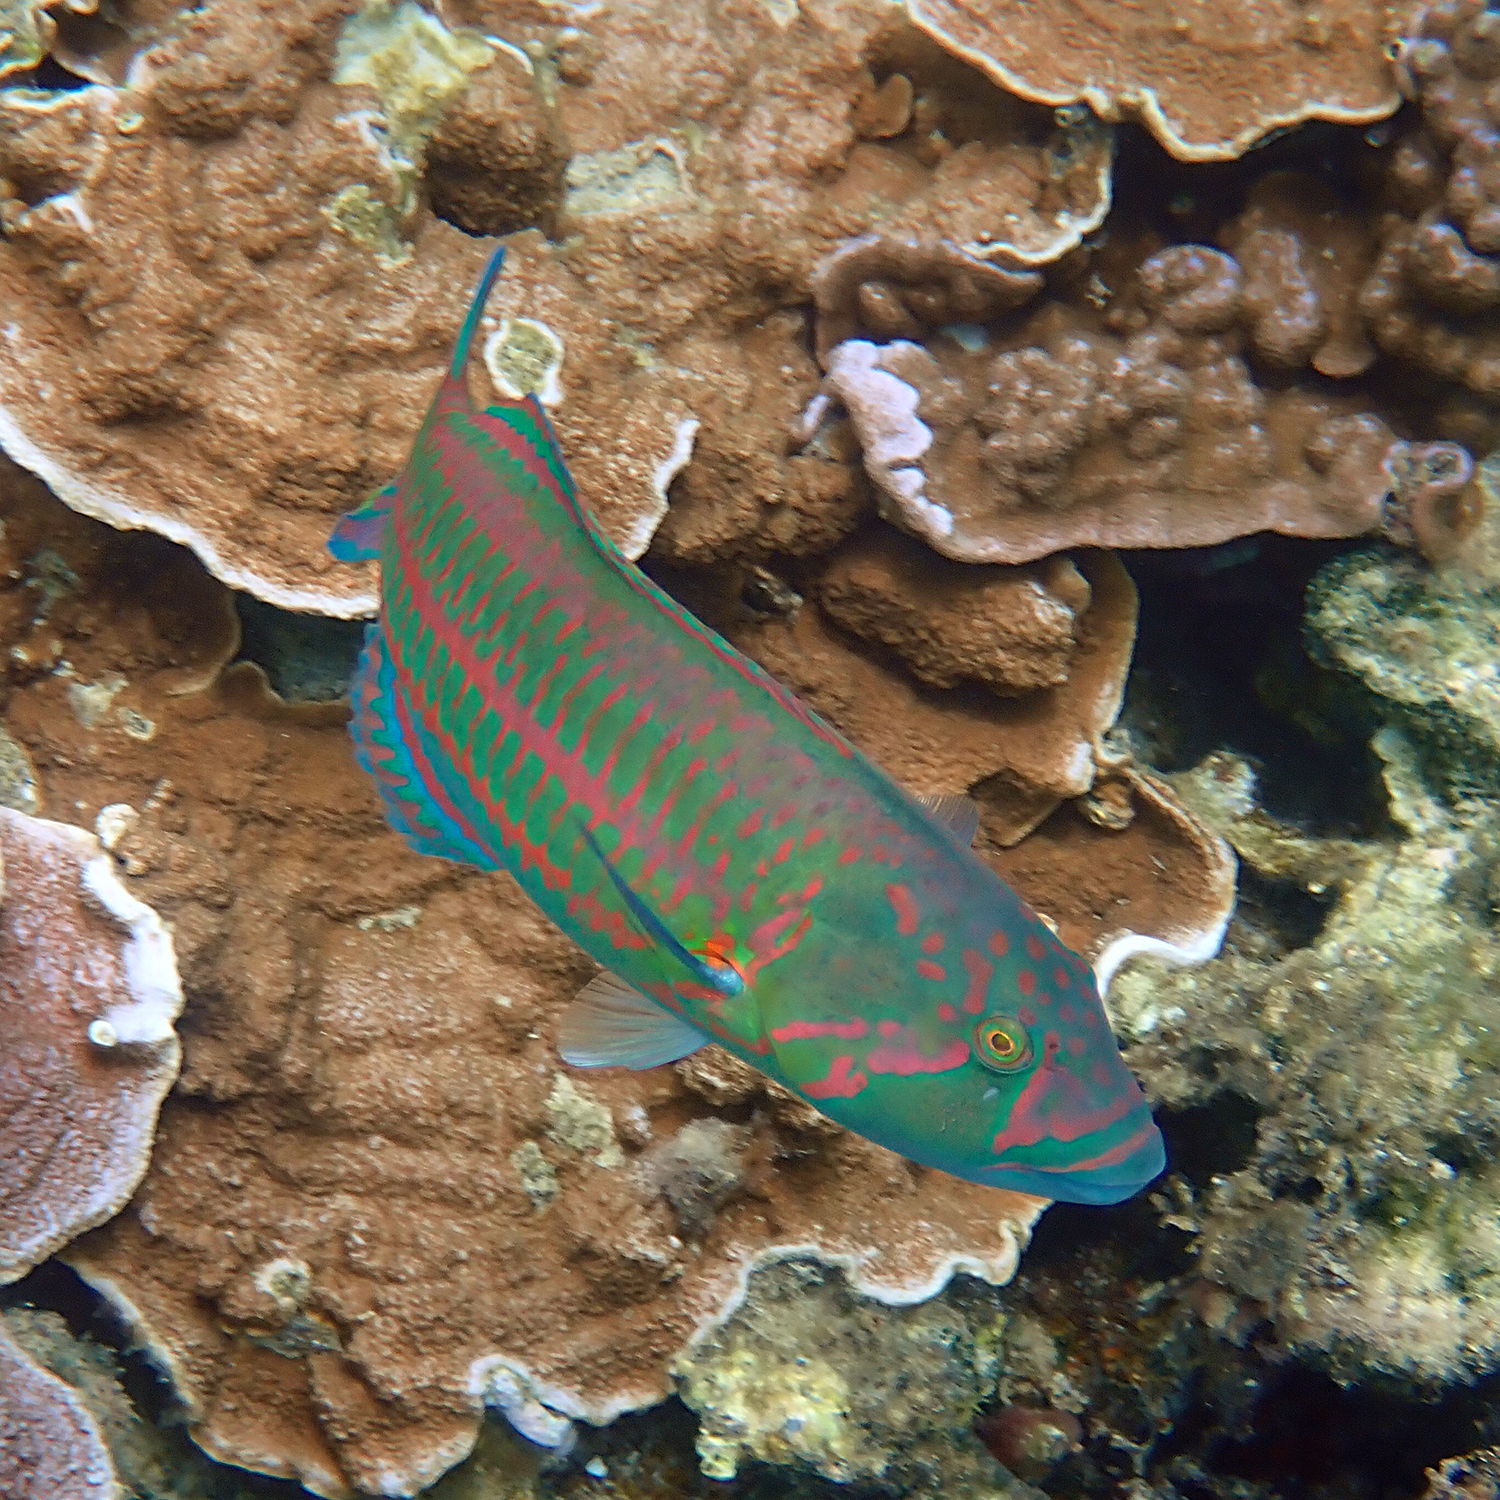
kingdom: Animalia
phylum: Chordata
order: Perciformes
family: Labridae
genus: Thalassoma
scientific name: Thalassoma purpureum
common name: Parrotfish
